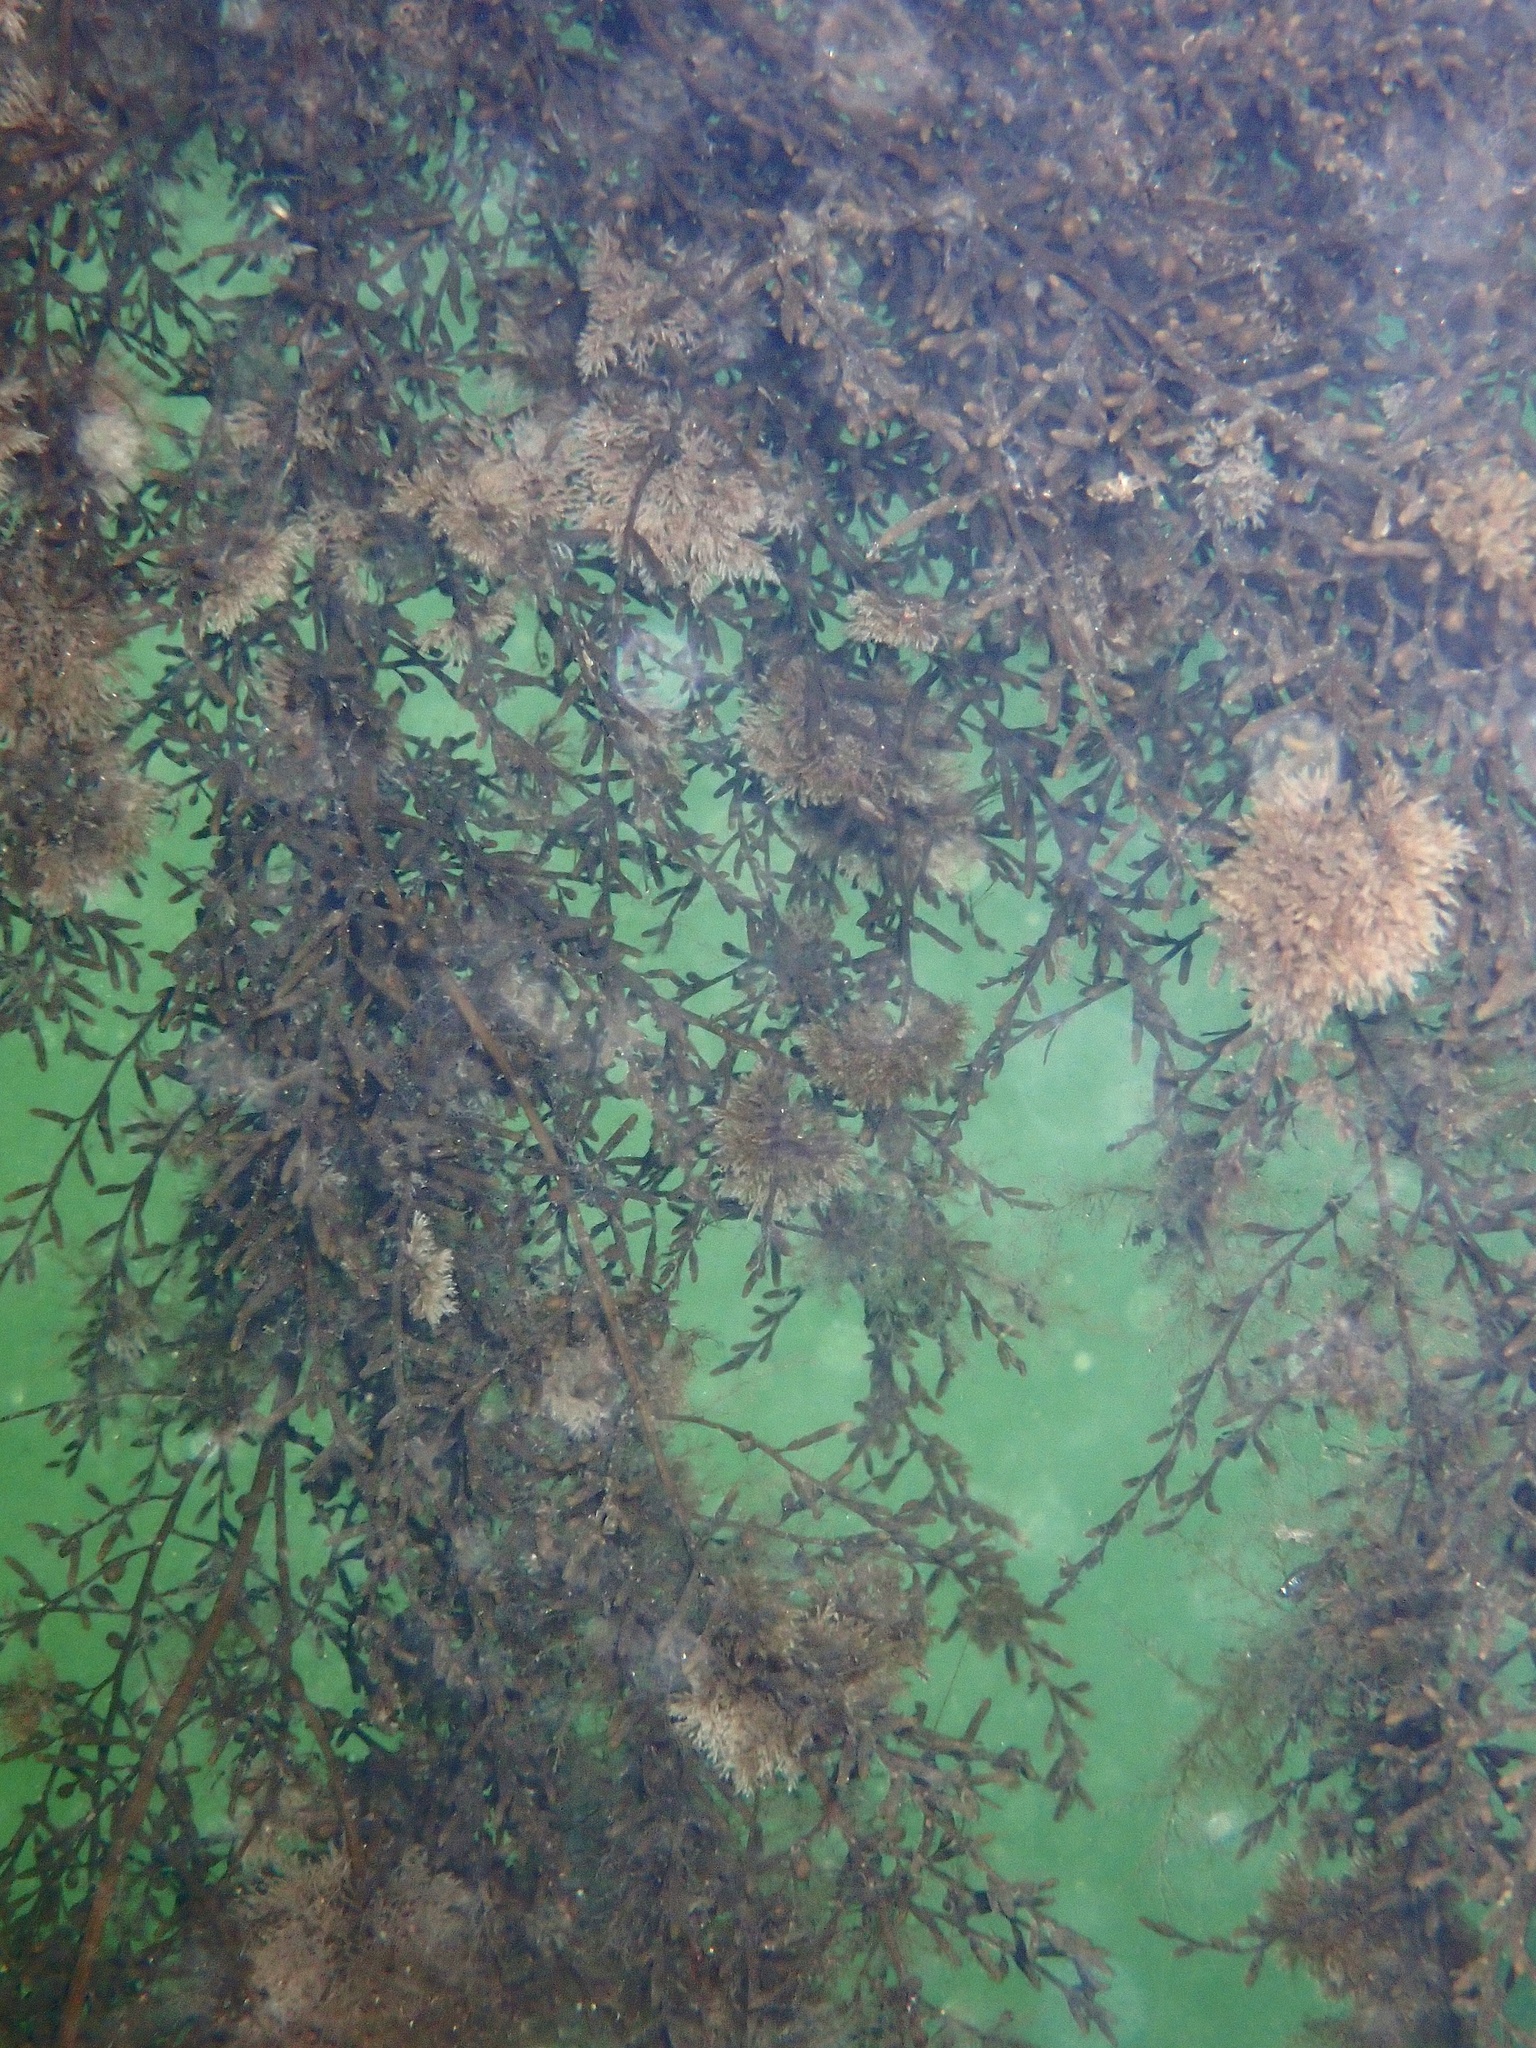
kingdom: Chromista
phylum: Ochrophyta
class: Phaeophyceae
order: Fucales
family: Sargassaceae
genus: Sargassum
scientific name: Sargassum muticum
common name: Japweed
